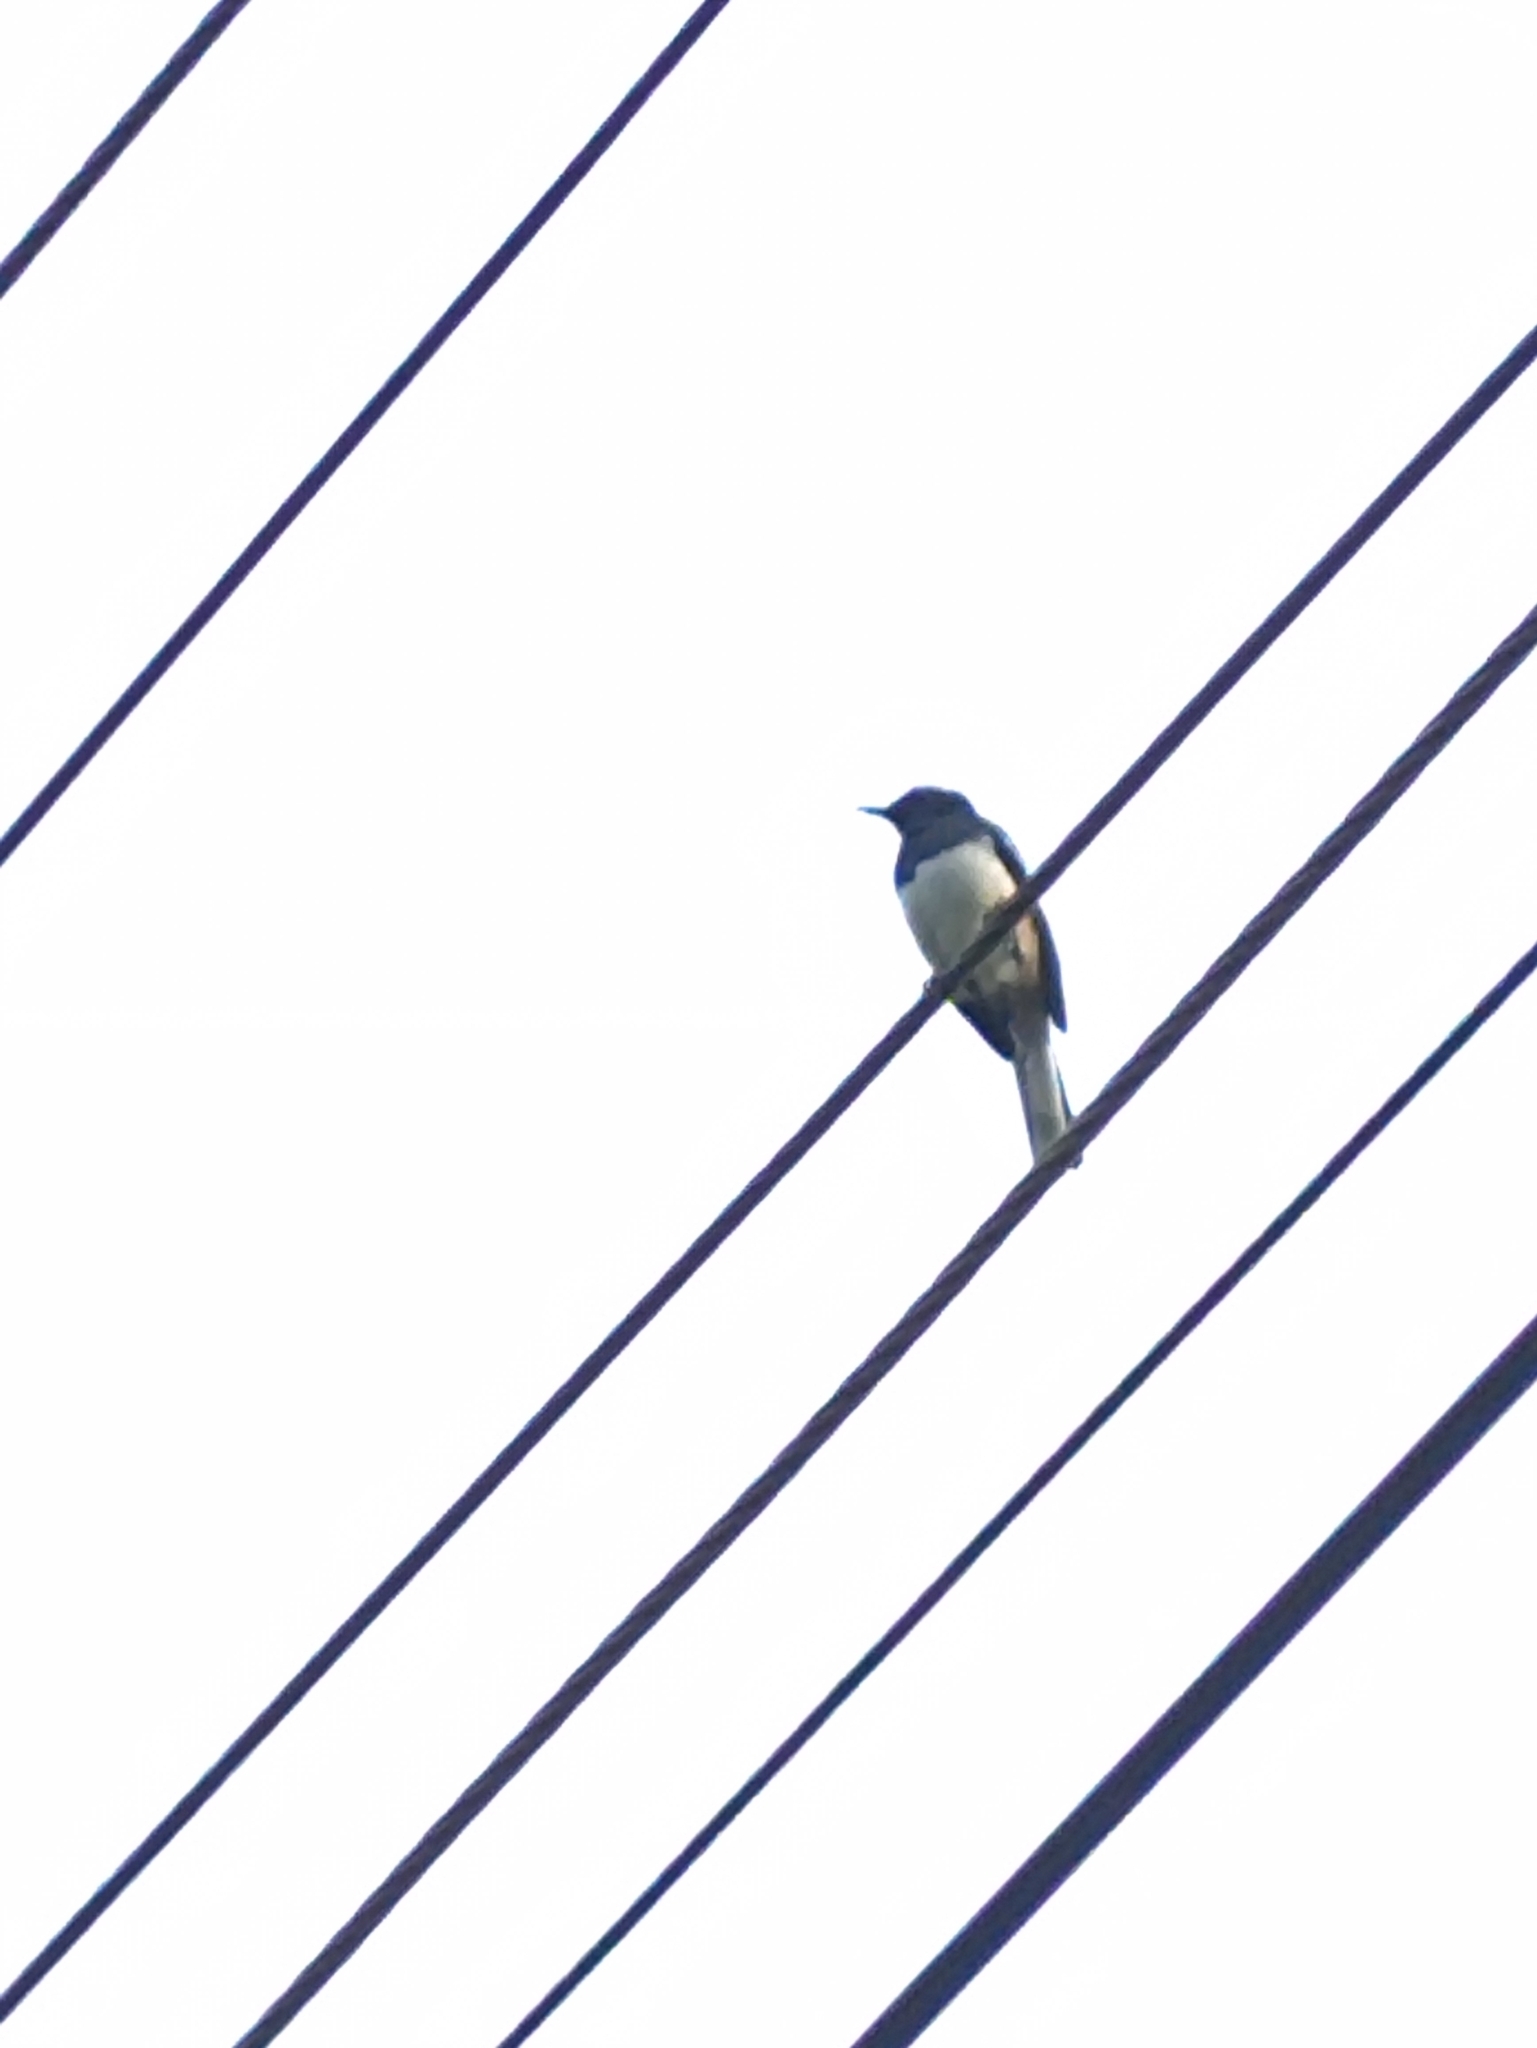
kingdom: Animalia
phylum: Chordata
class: Aves
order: Passeriformes
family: Muscicapidae
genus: Copsychus
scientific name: Copsychus saularis
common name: Oriental magpie-robin
